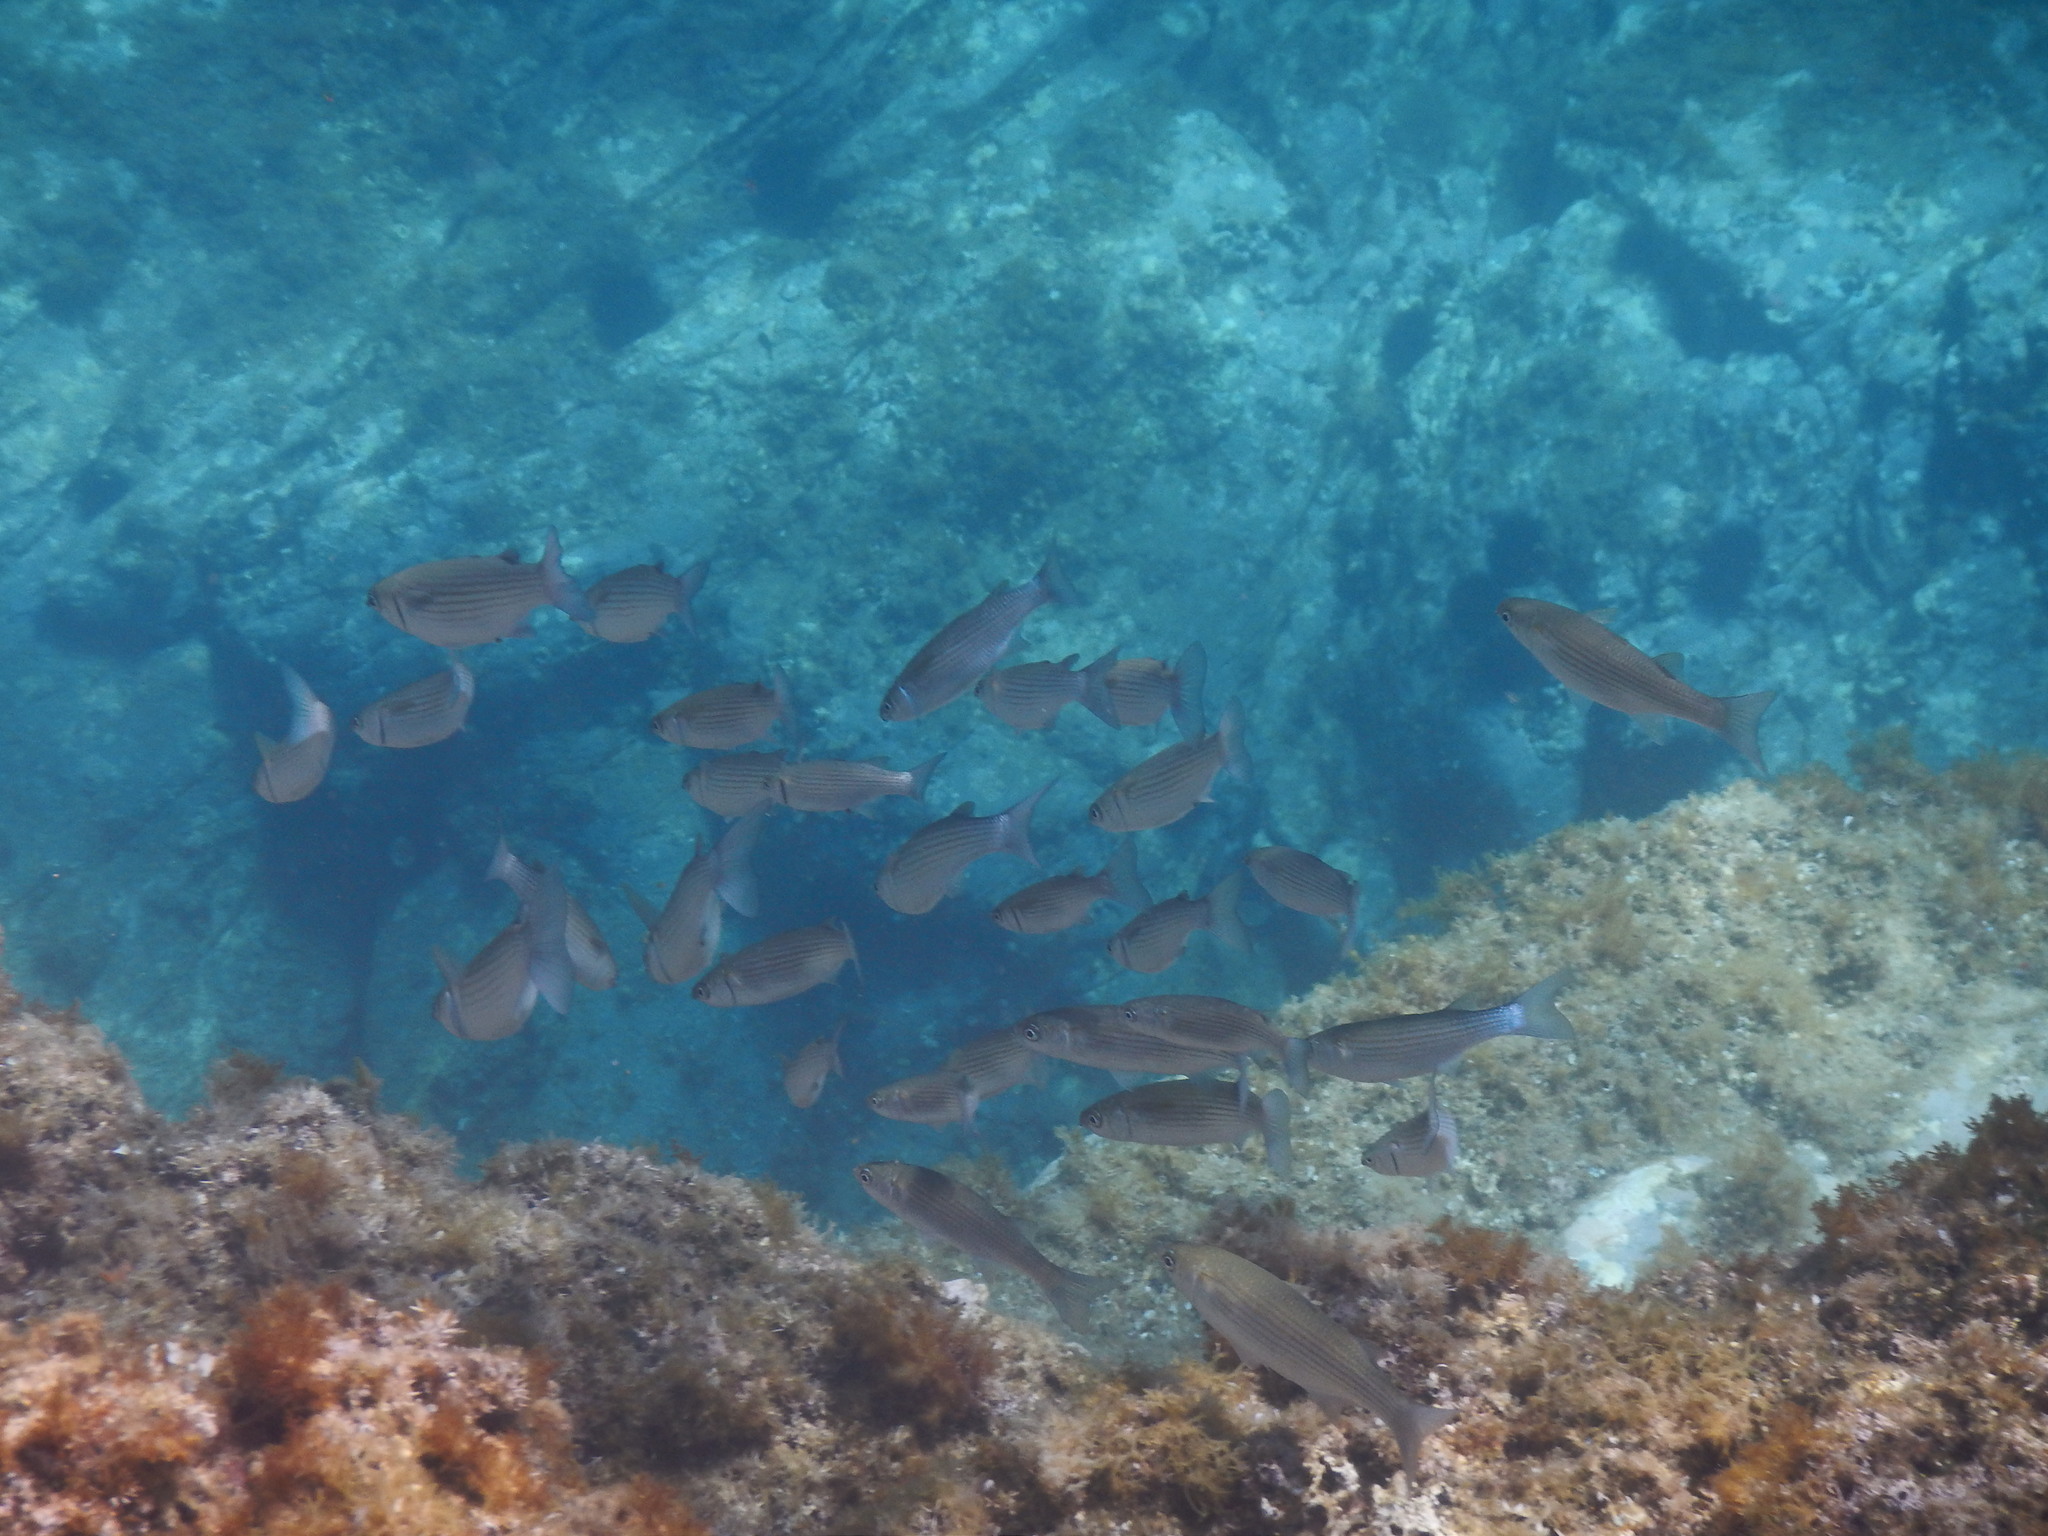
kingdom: Animalia
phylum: Chordata
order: Mugiliformes
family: Mugilidae
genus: Oedalechilus
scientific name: Oedalechilus labeo
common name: Boxlip mullet
